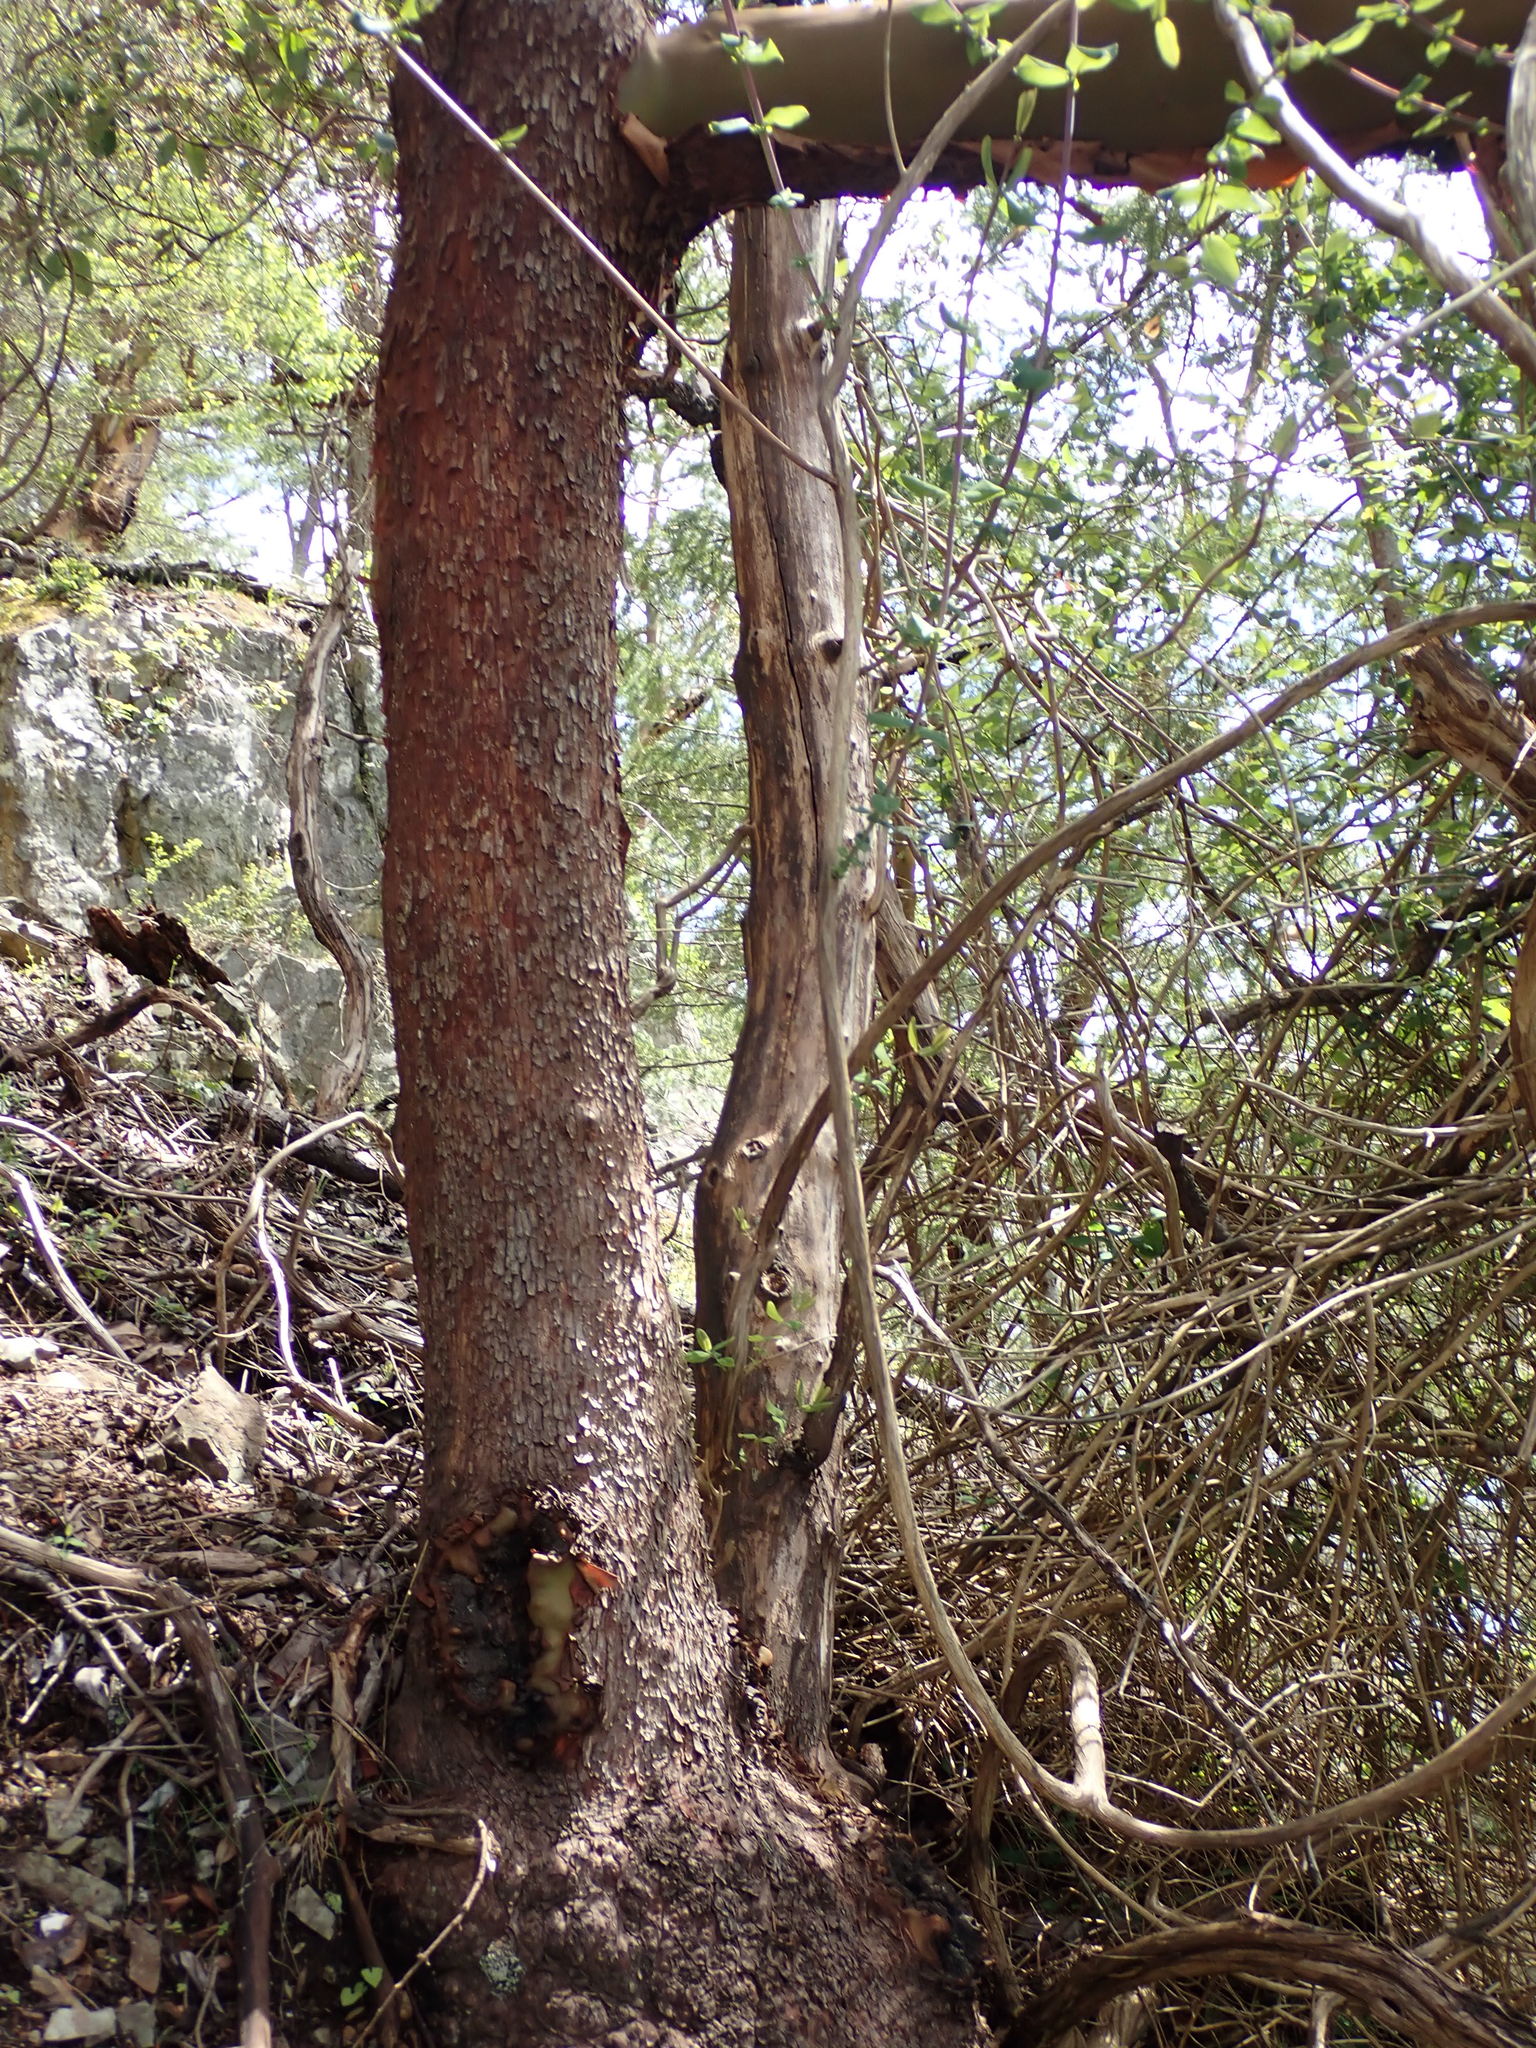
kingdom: Plantae
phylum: Tracheophyta
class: Magnoliopsida
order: Ericales
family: Ericaceae
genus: Arbutus
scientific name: Arbutus menziesii
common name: Pacific madrone
